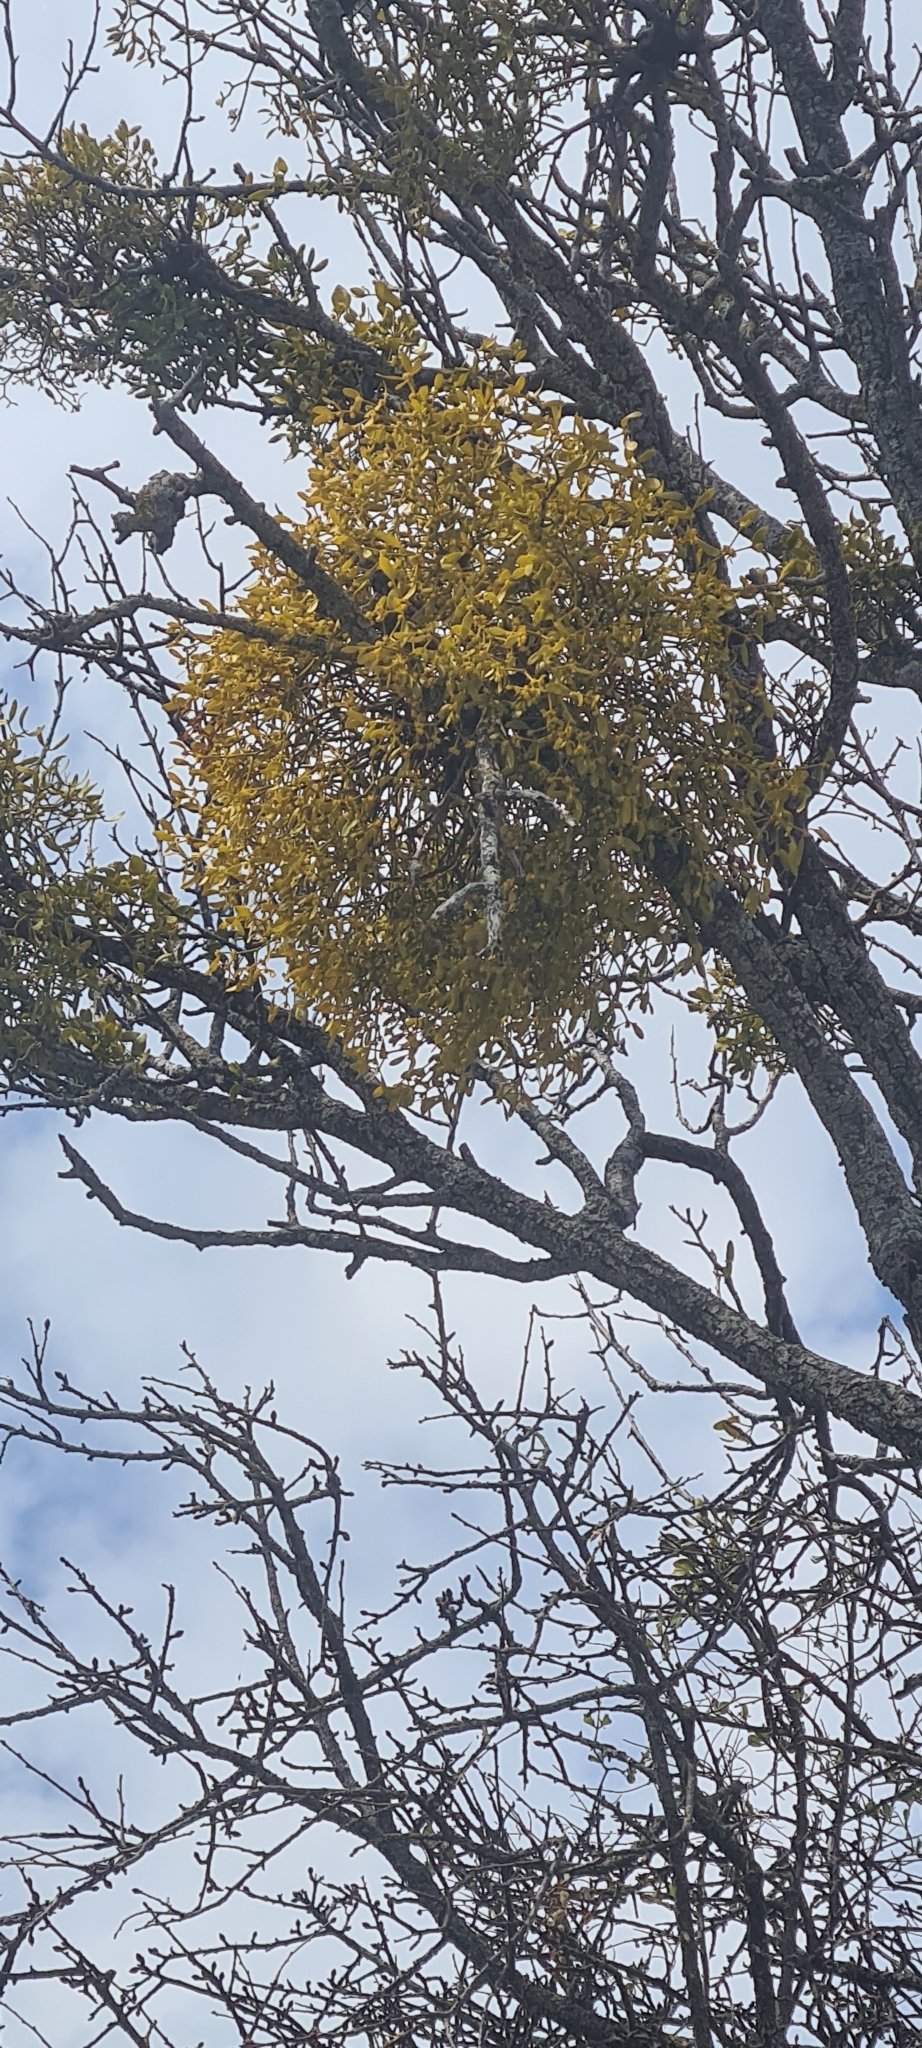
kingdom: Plantae
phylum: Tracheophyta
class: Magnoliopsida
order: Santalales
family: Viscaceae
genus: Viscum
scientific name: Viscum album
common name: Mistletoe
